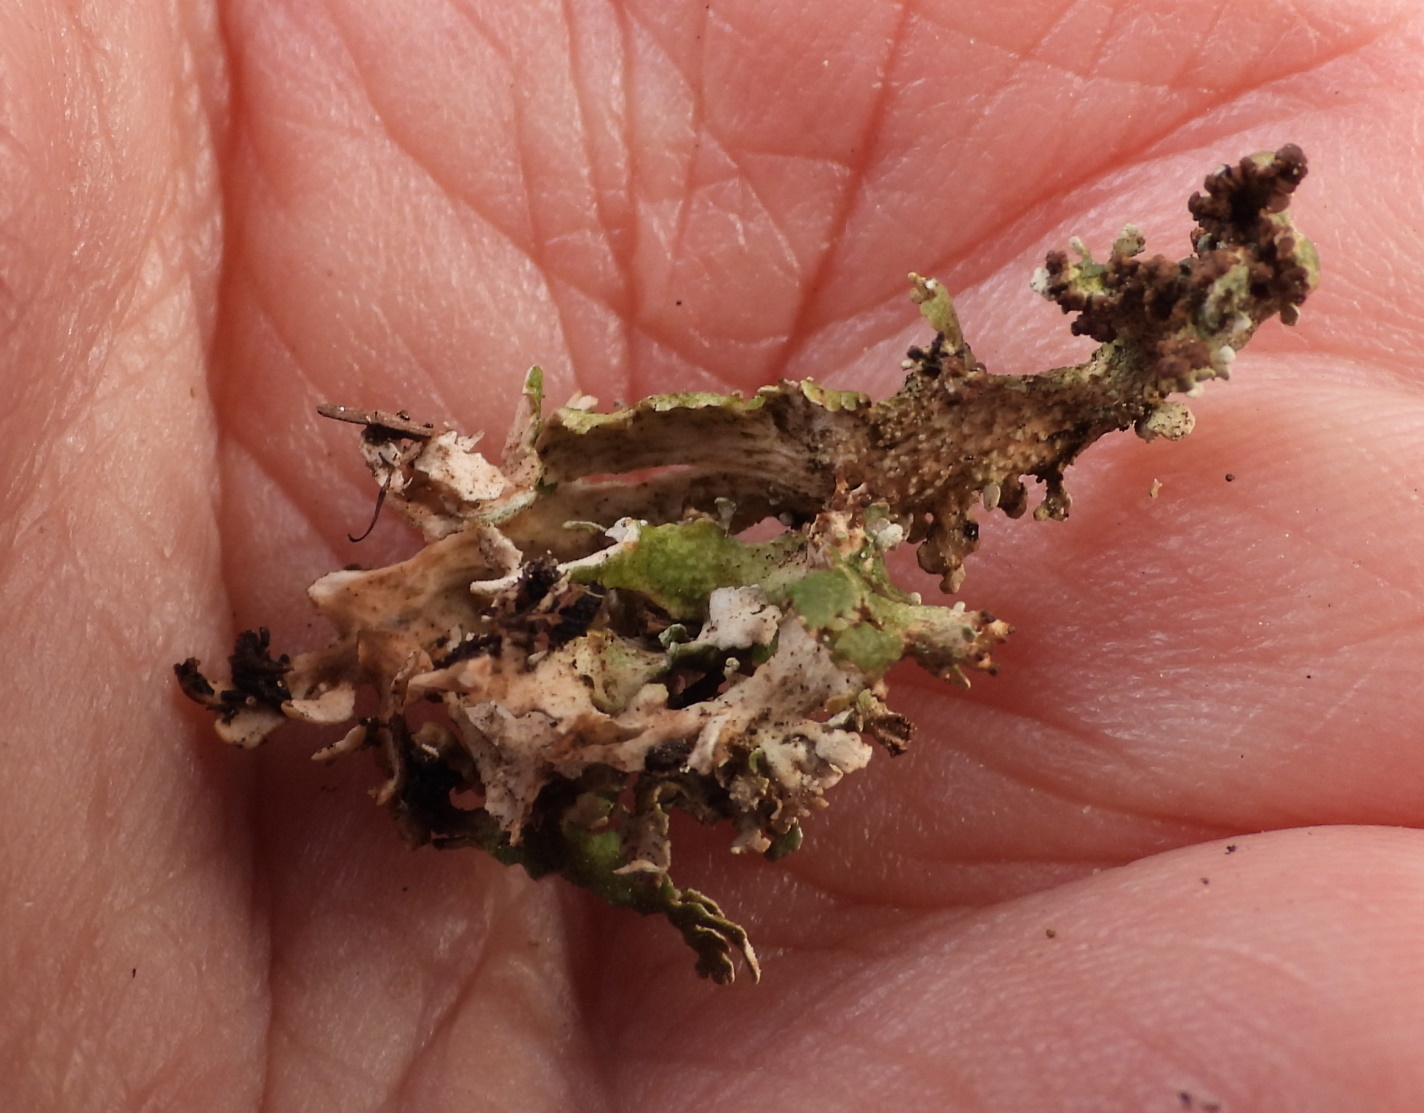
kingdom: Fungi
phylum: Ascomycota
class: Lecanoromycetes
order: Lecanorales
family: Cladoniaceae
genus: Cladonia
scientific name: Cladonia strepsilis
